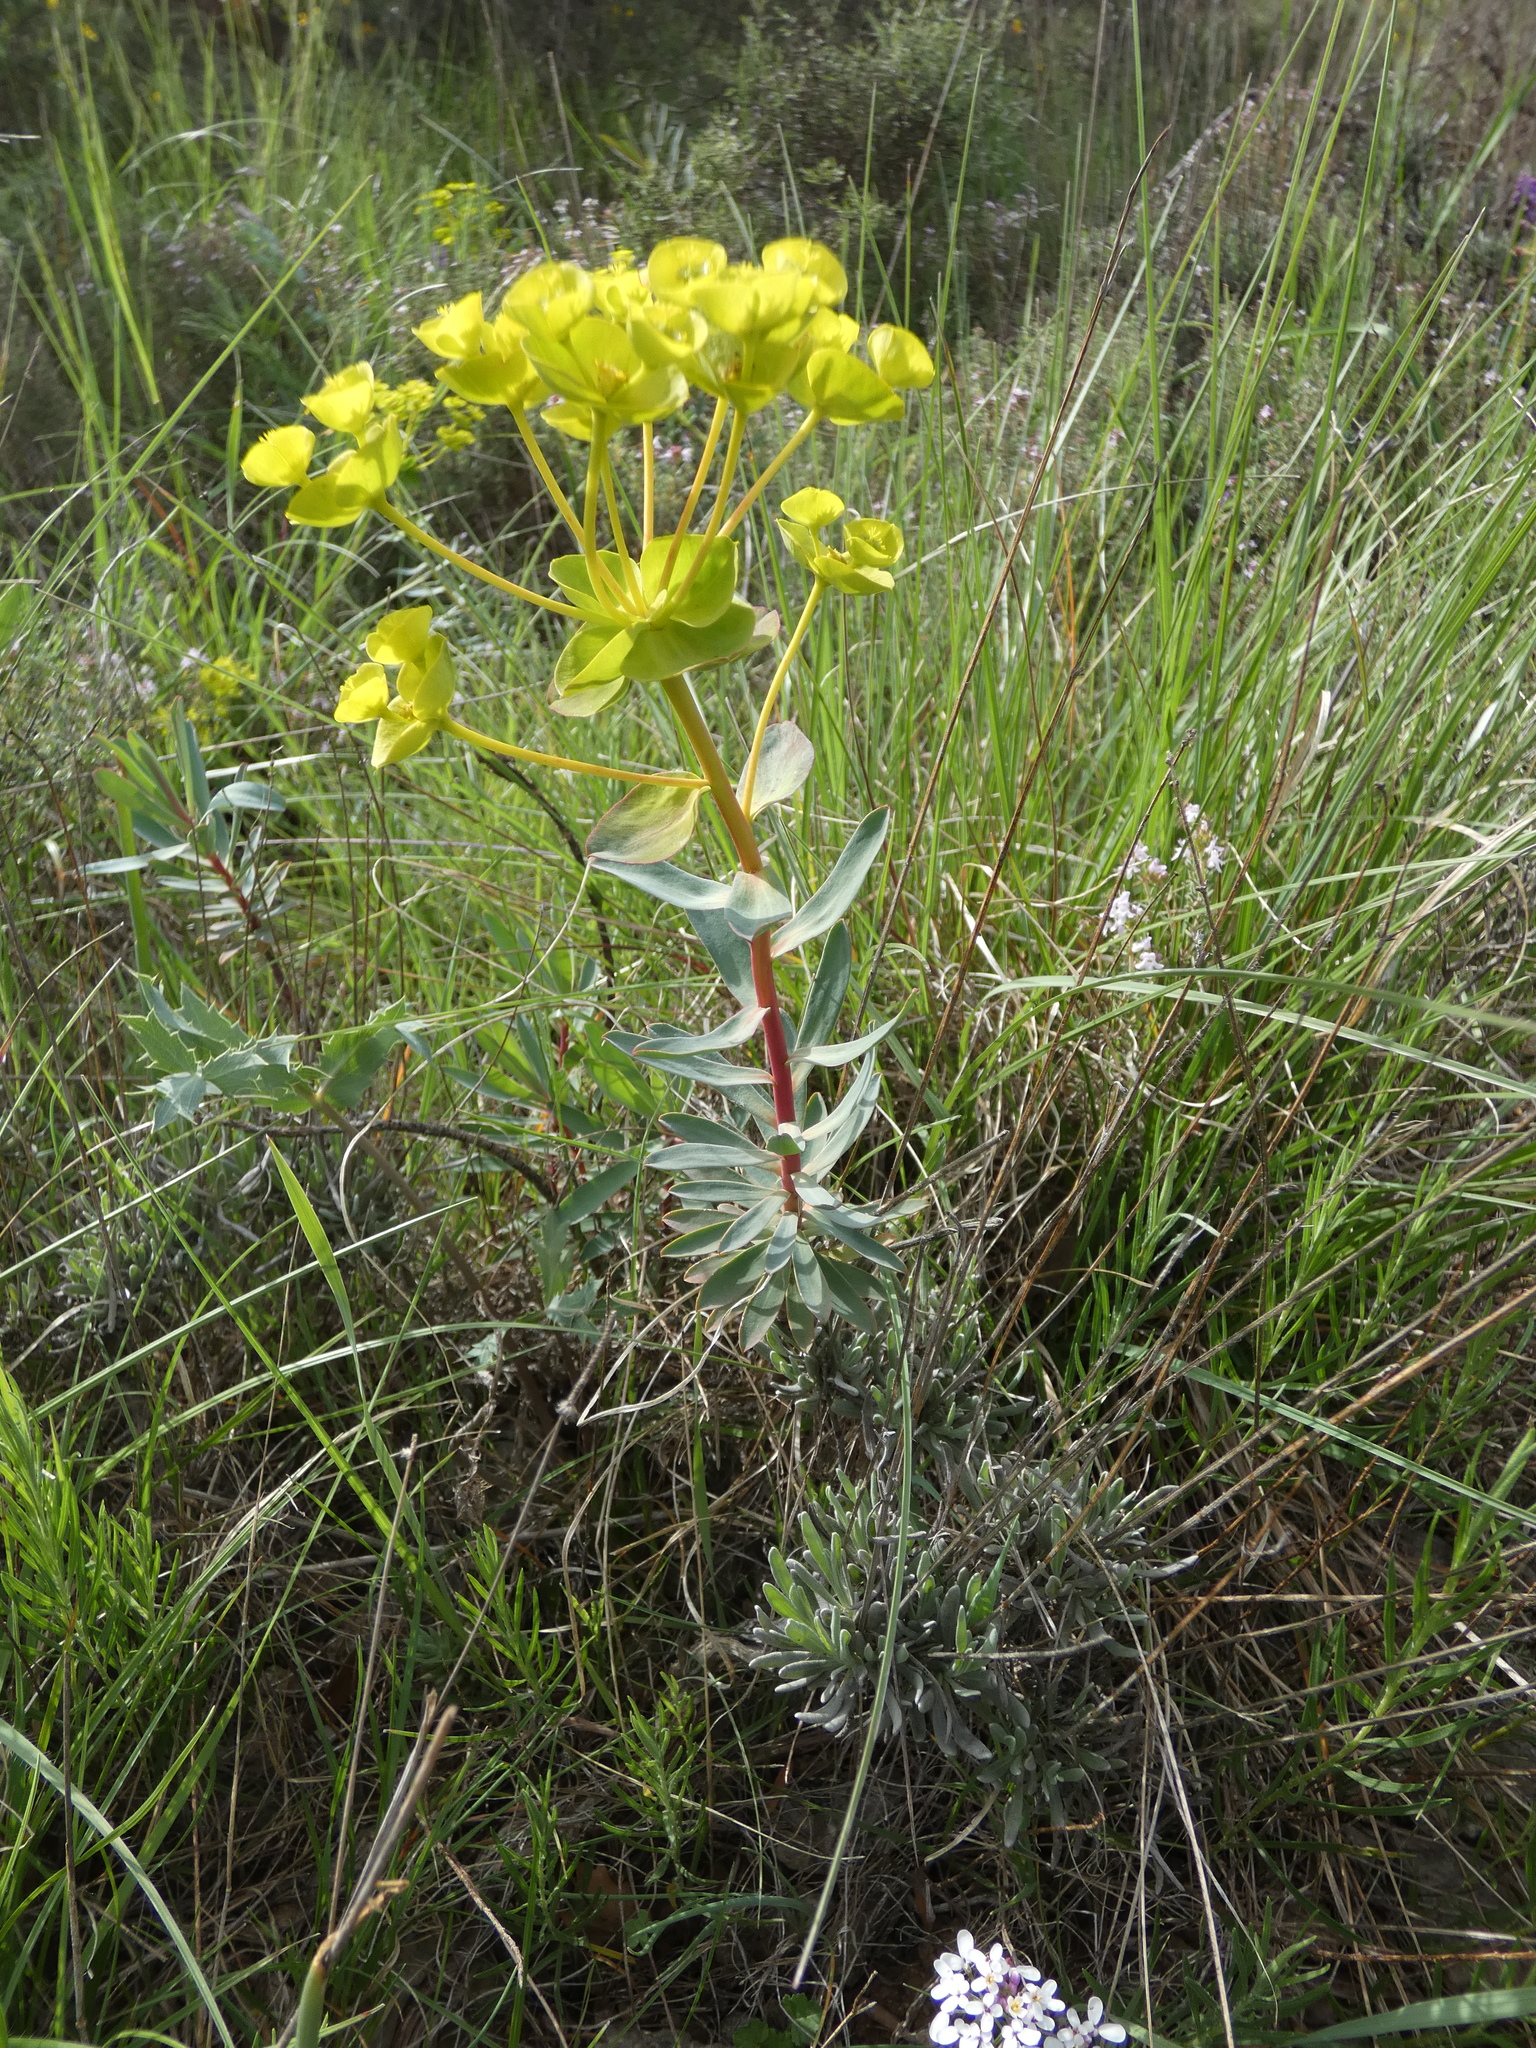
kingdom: Plantae
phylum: Tracheophyta
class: Magnoliopsida
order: Malpighiales
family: Euphorbiaceae
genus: Euphorbia
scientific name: Euphorbia nicaeensis
